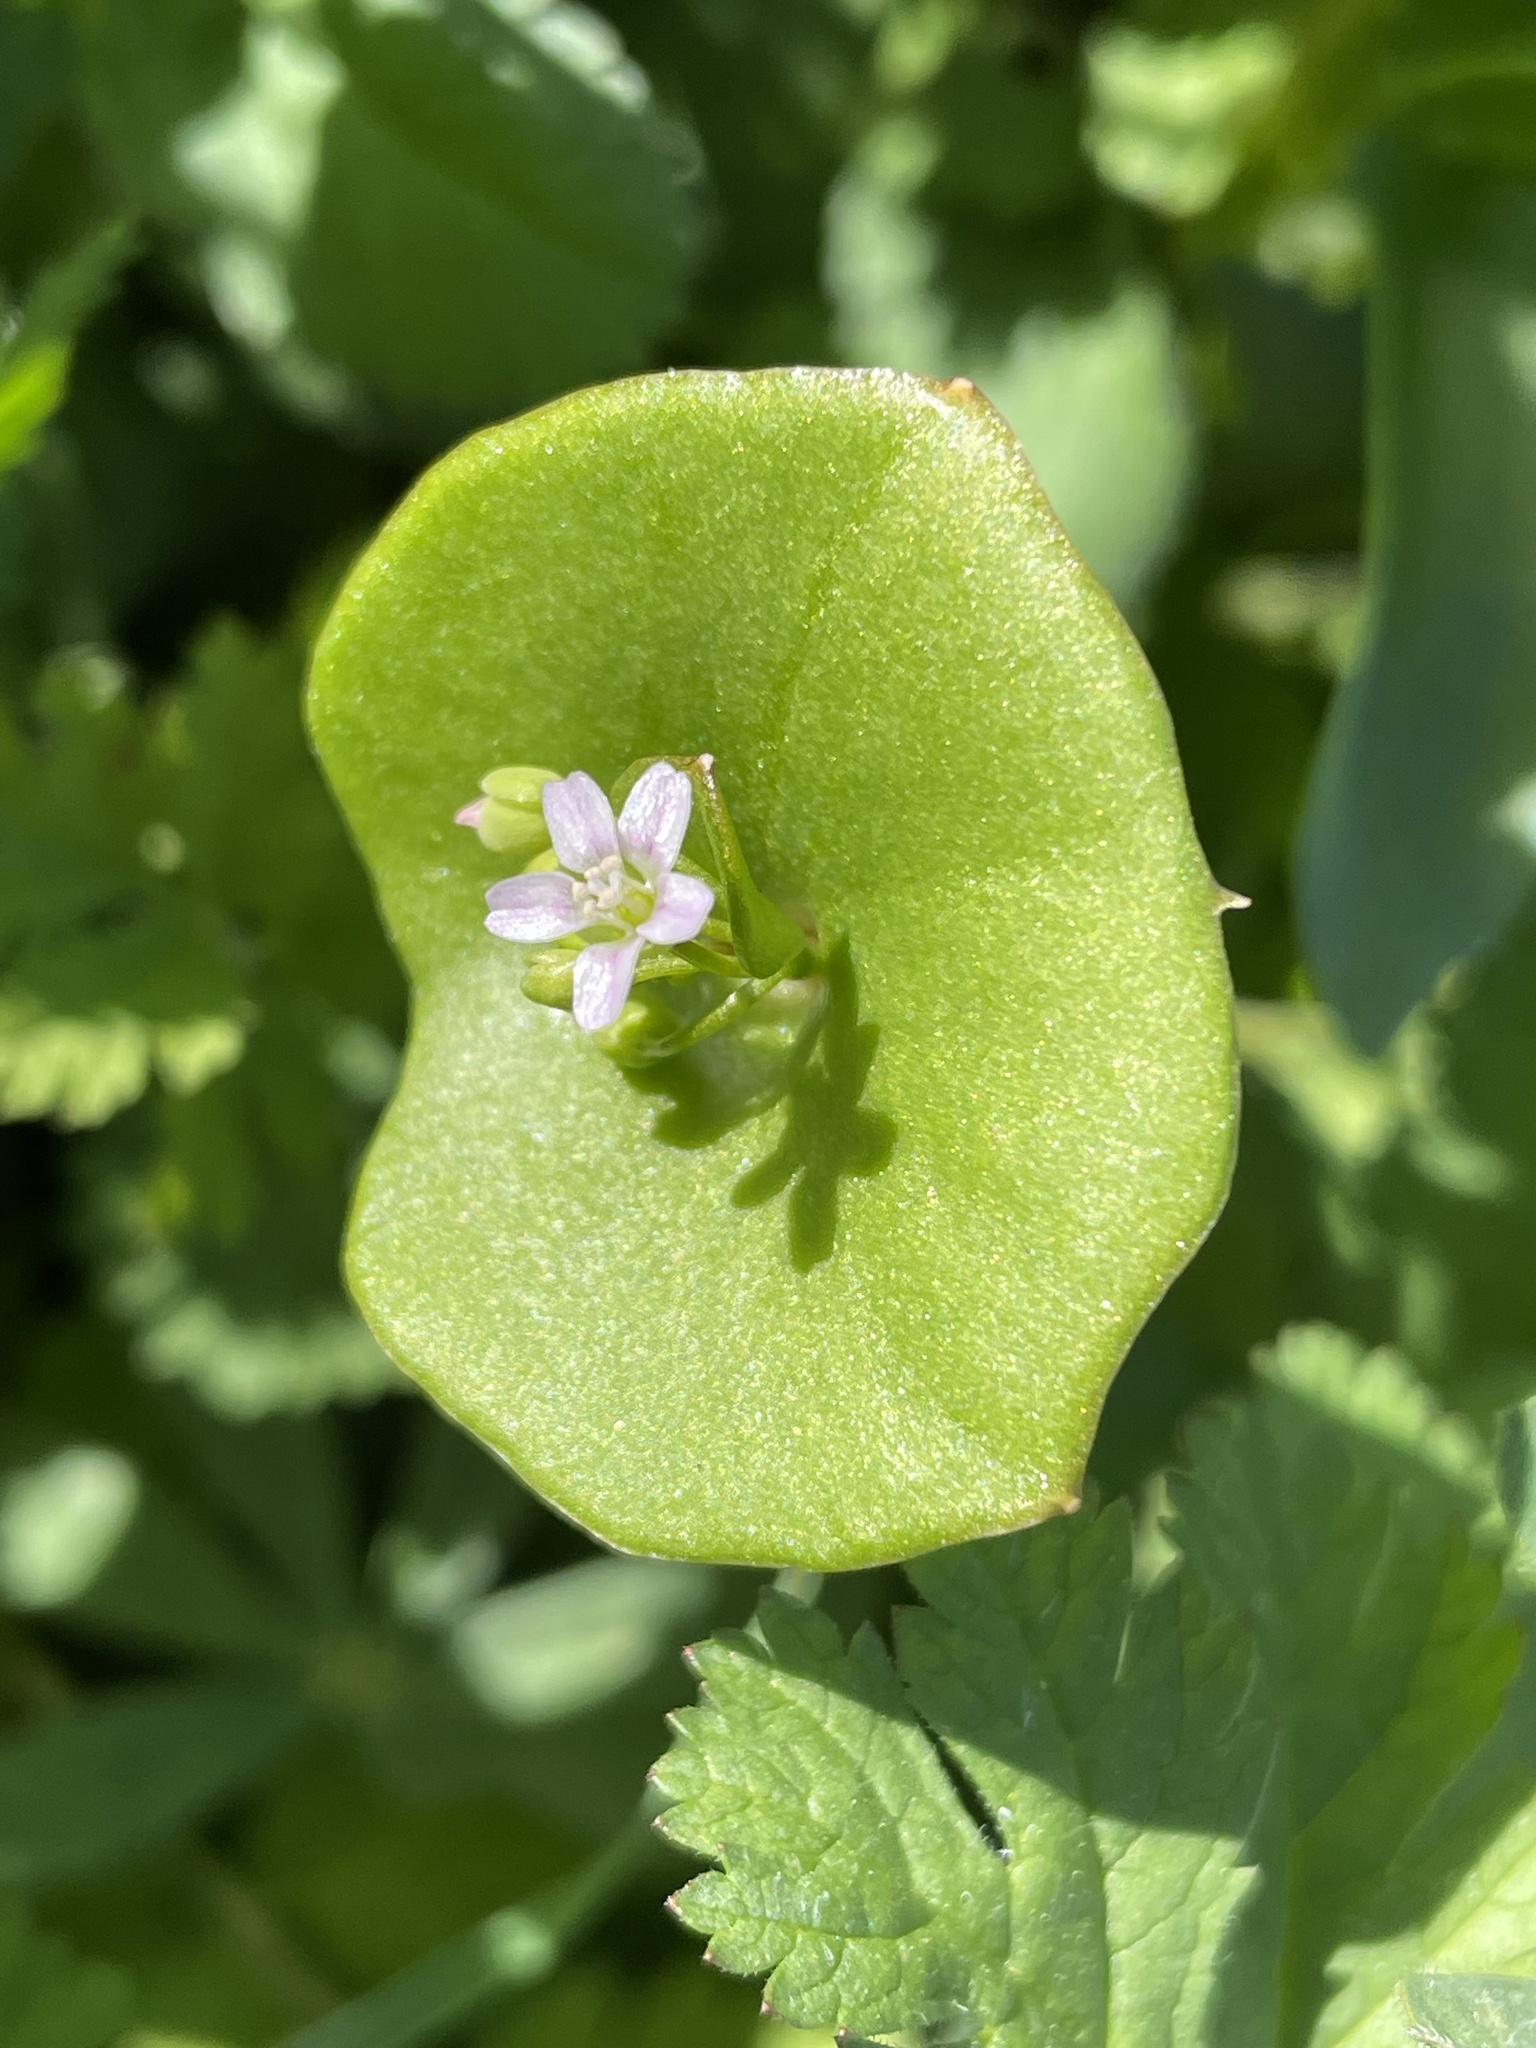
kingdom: Plantae
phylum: Tracheophyta
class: Magnoliopsida
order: Caryophyllales
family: Montiaceae
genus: Claytonia
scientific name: Claytonia perfoliata
